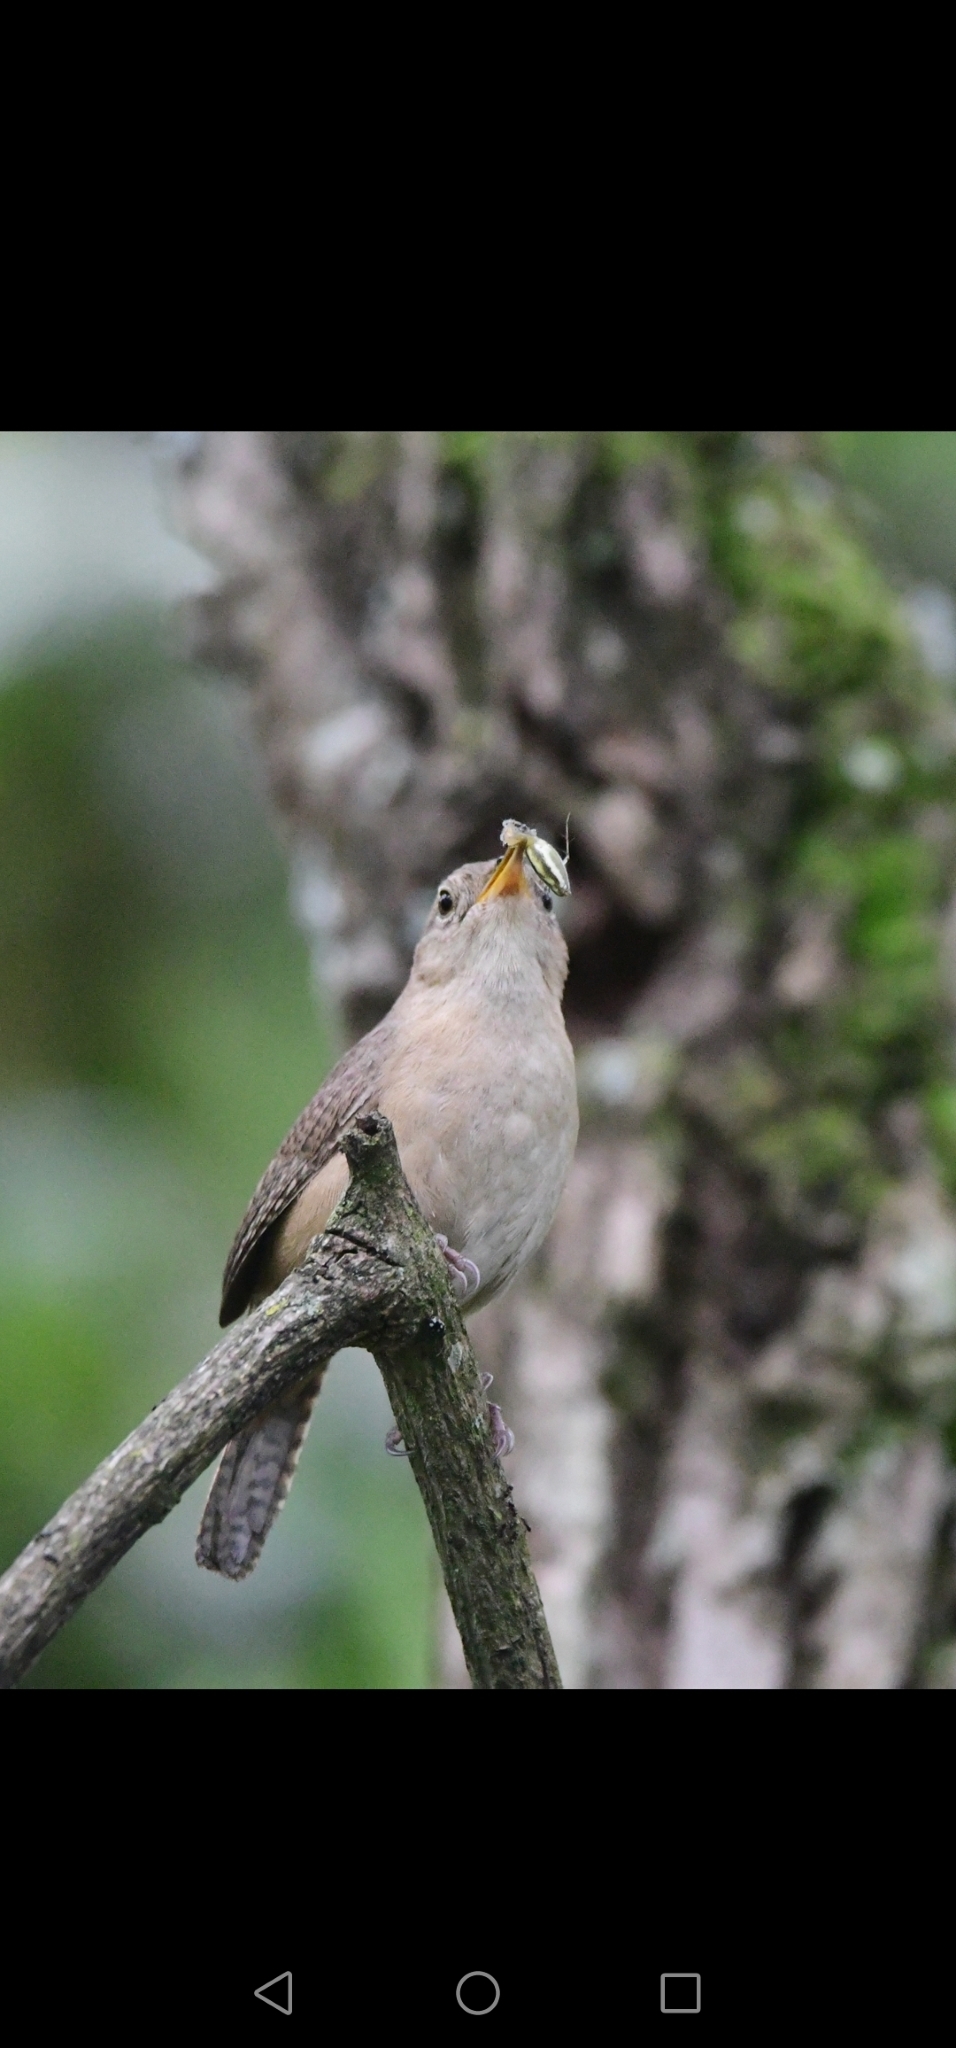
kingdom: Animalia
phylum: Chordata
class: Aves
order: Passeriformes
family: Troglodytidae
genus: Troglodytes
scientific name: Troglodytes aedon
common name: House wren
